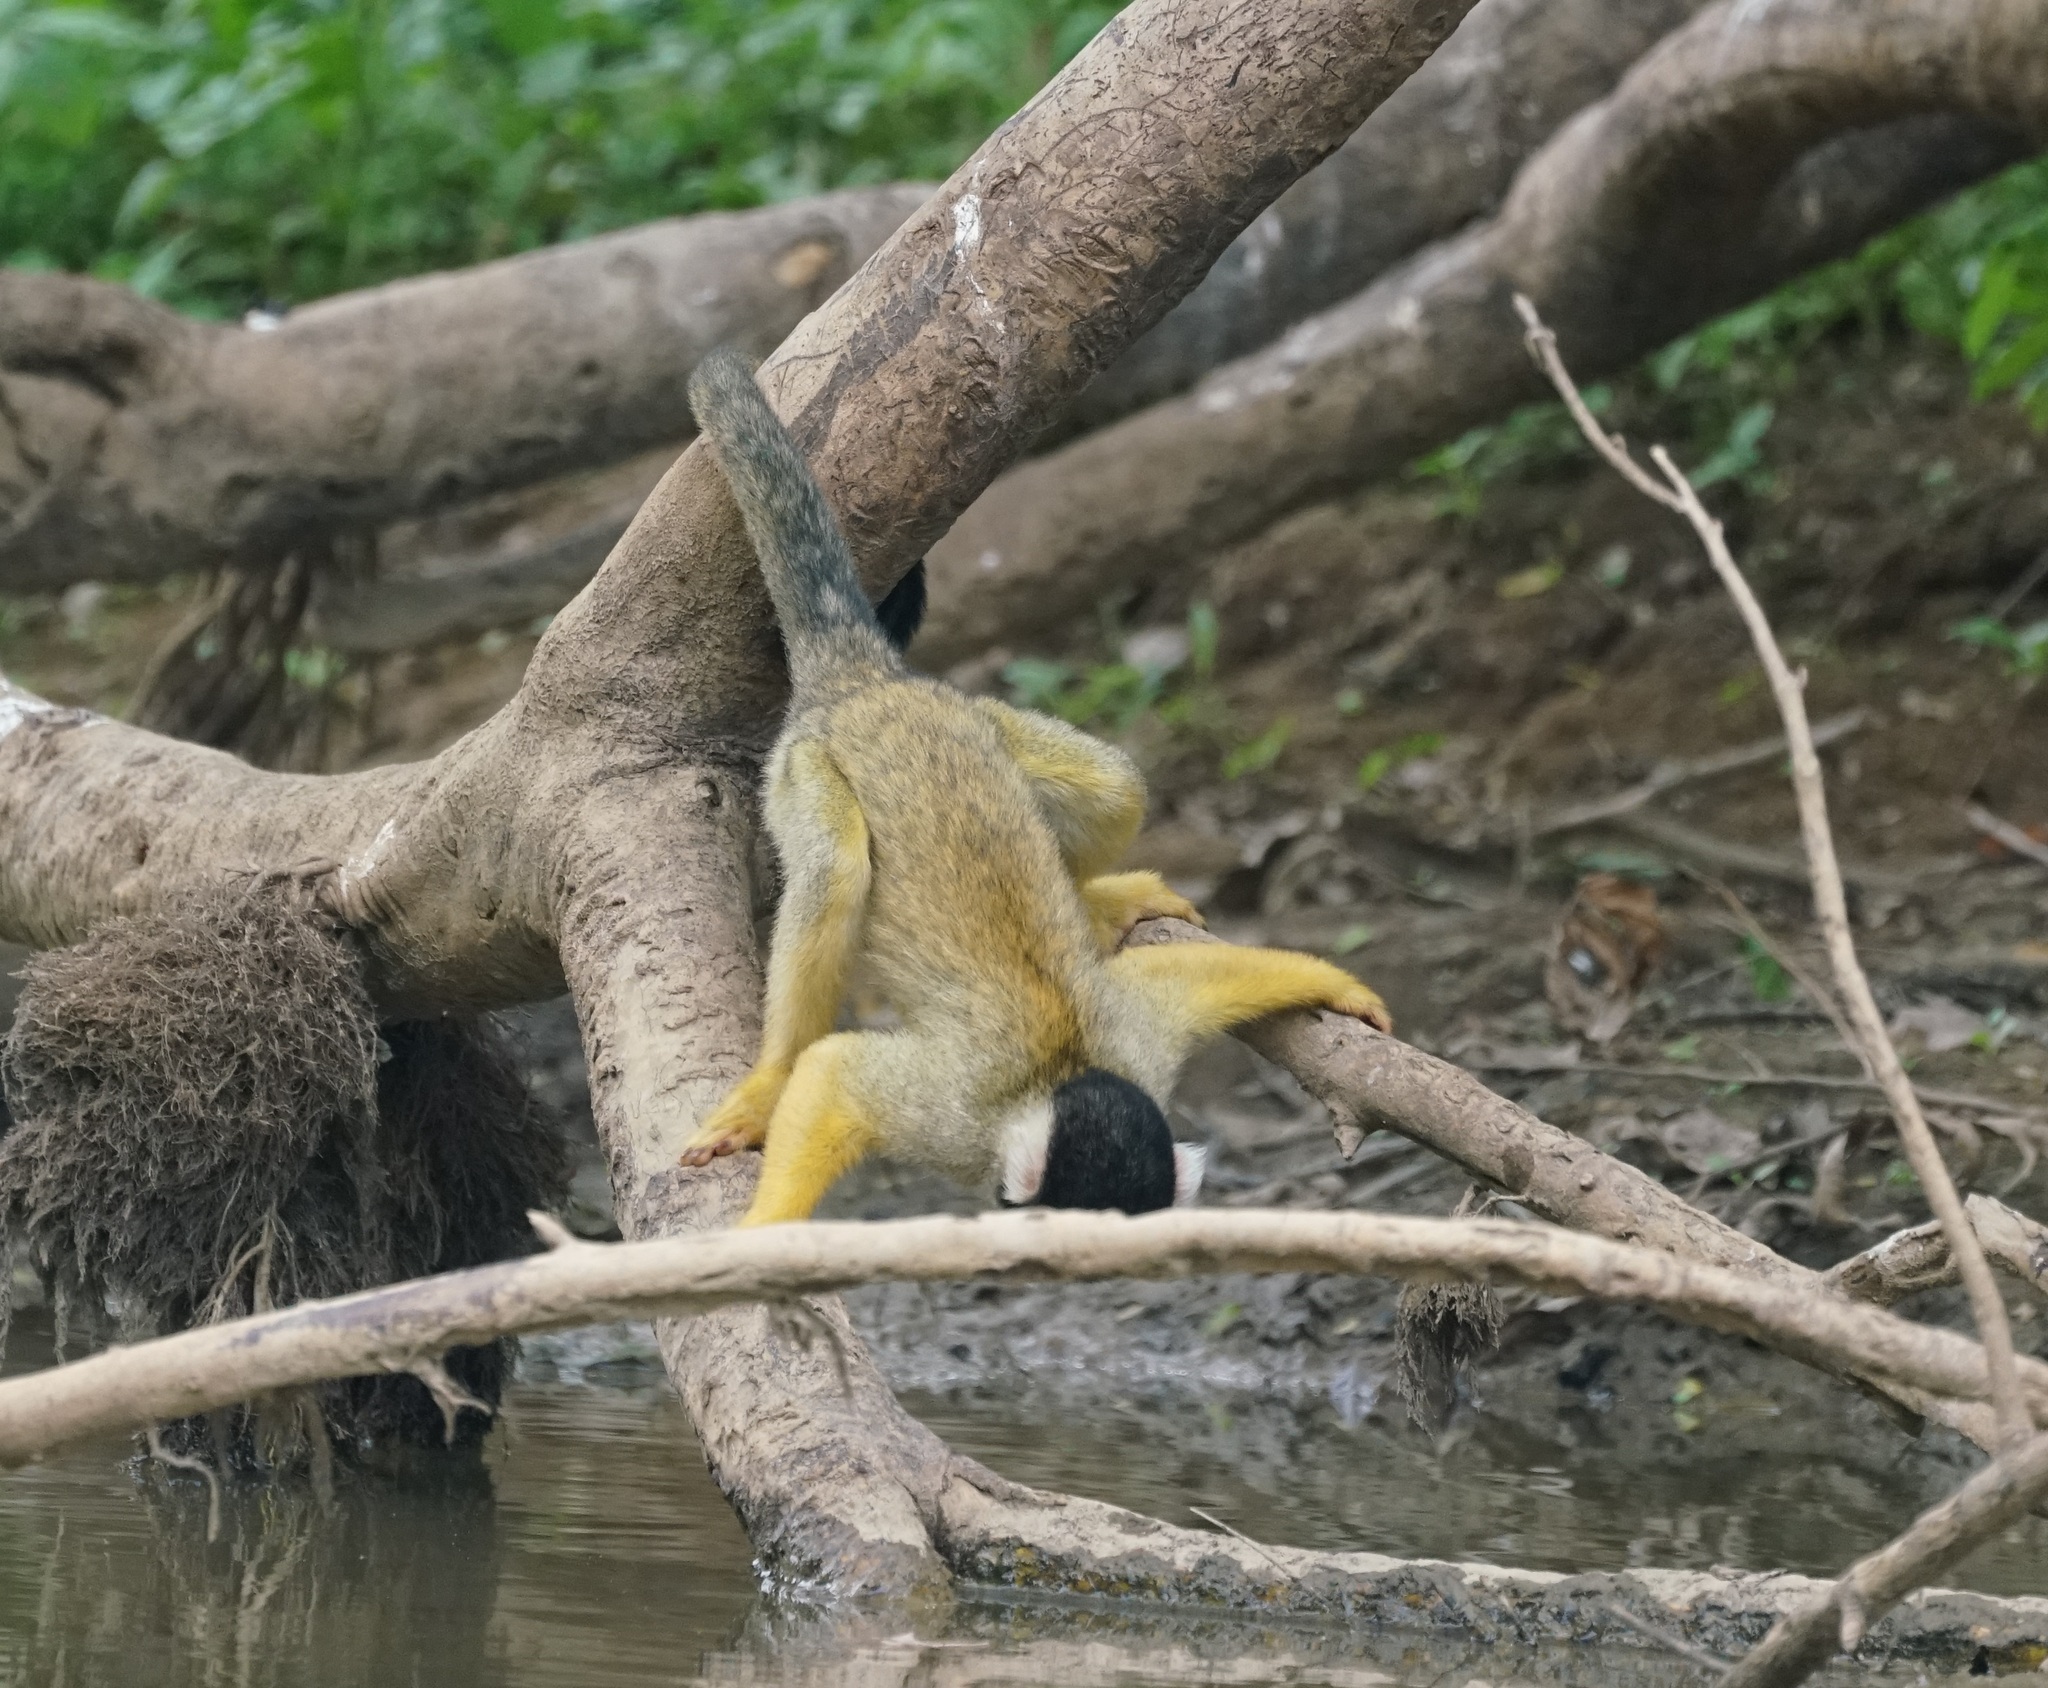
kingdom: Animalia
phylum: Chordata
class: Mammalia
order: Primates
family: Cebidae
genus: Saimiri
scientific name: Saimiri boliviensis
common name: Black-capped squirrel monkey
